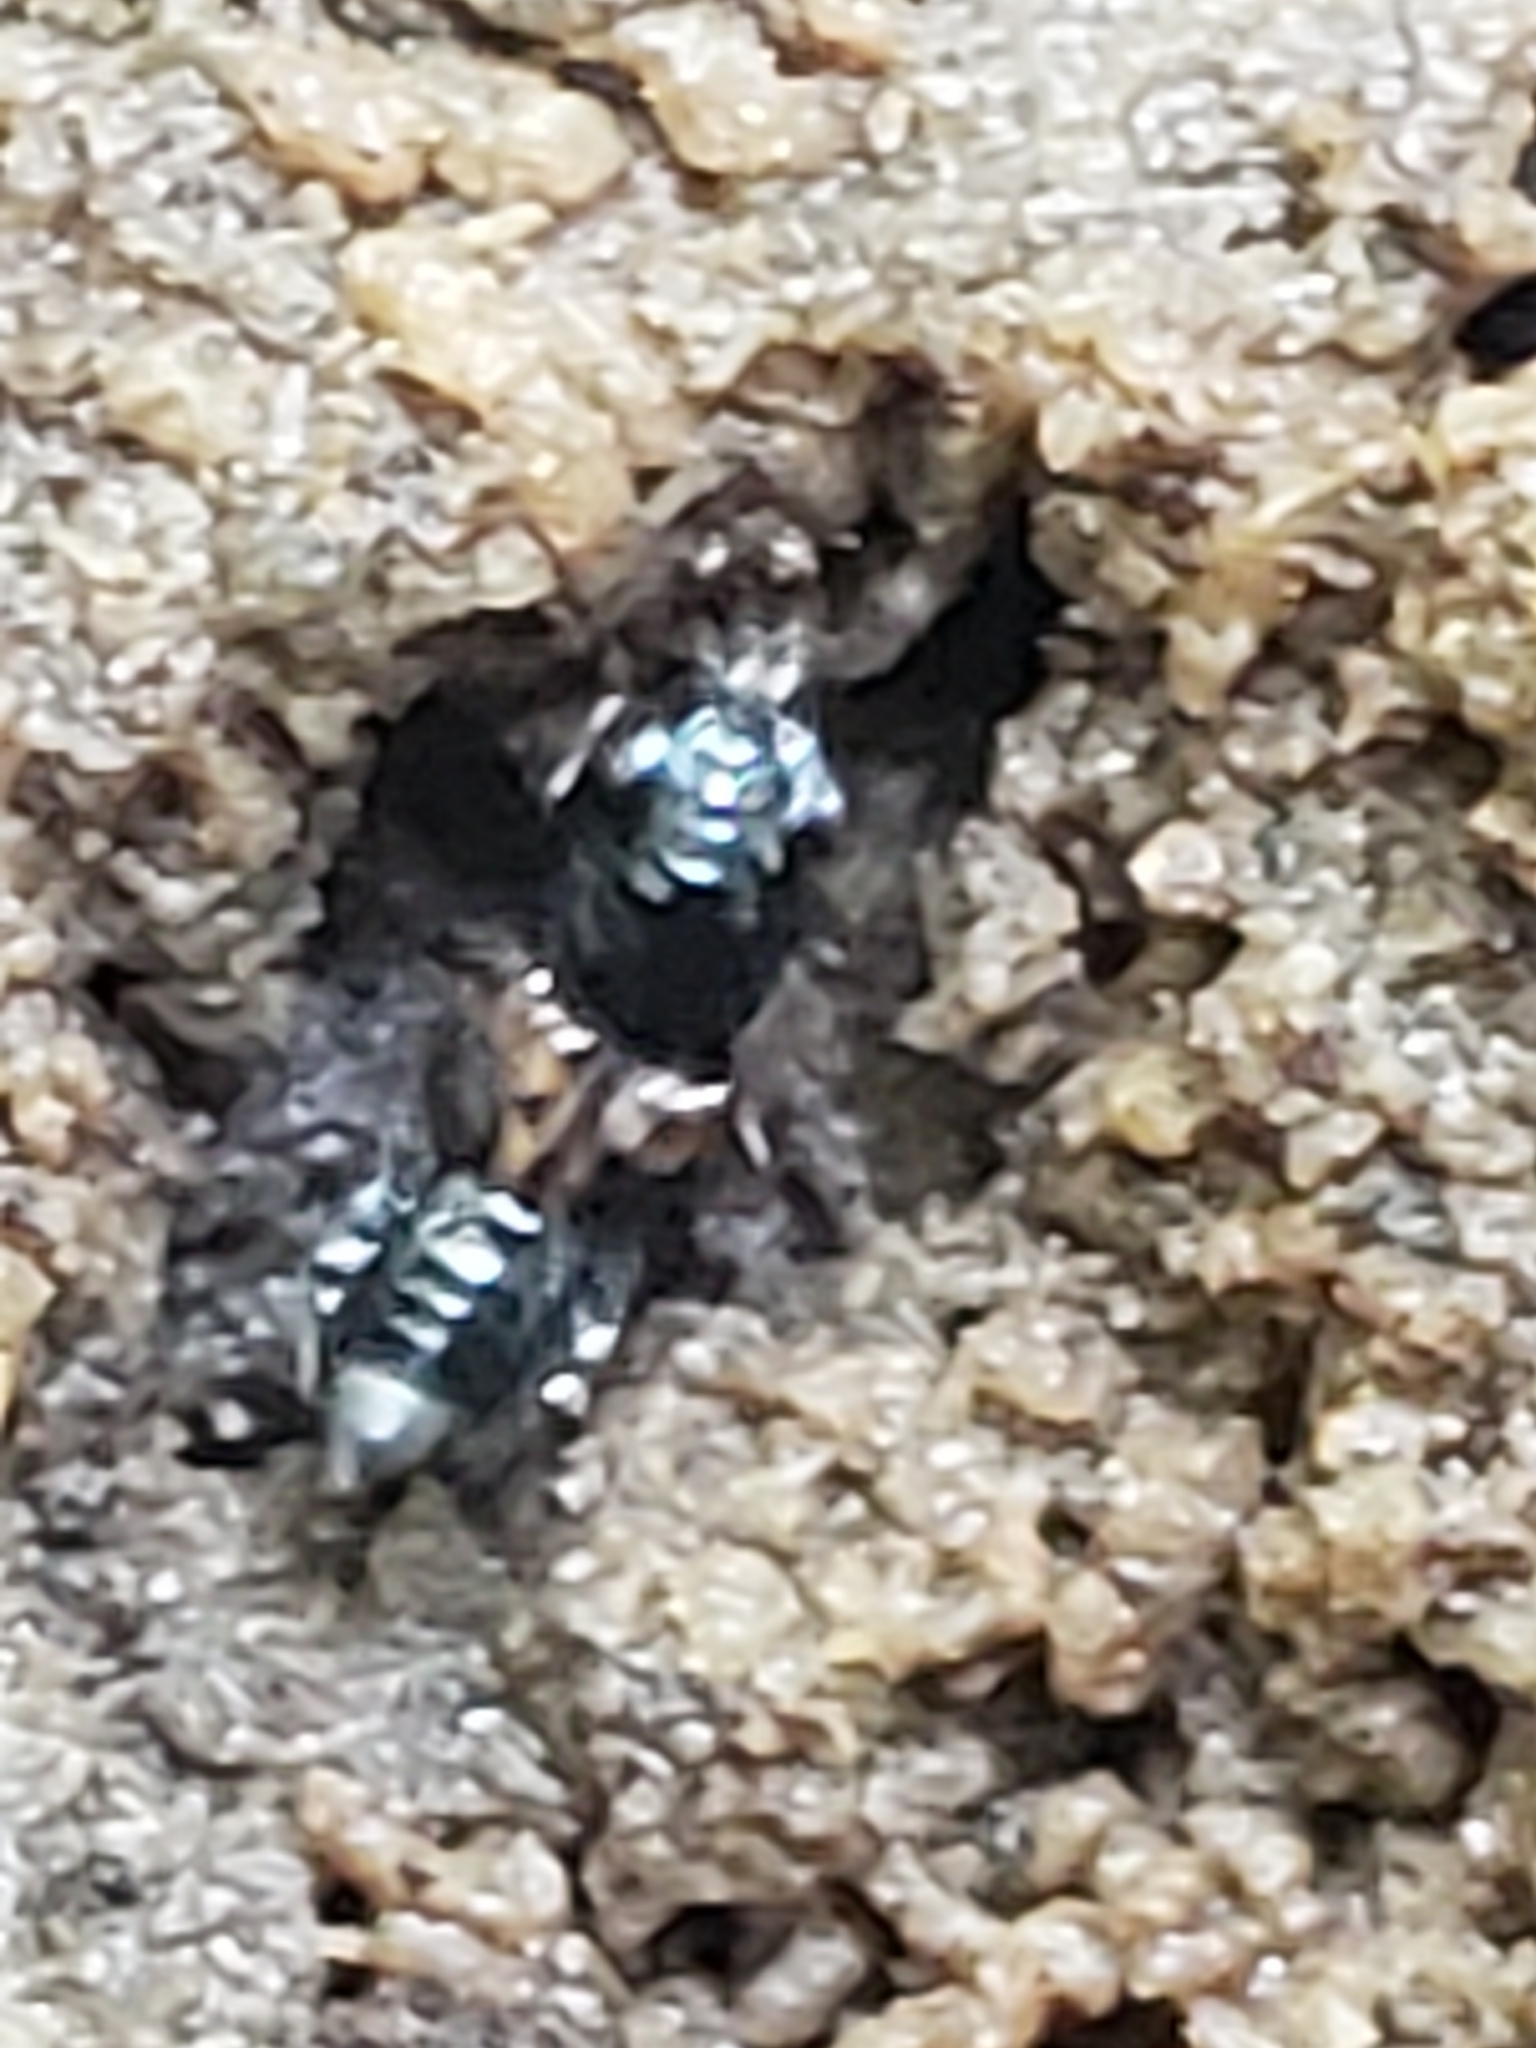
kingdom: Animalia
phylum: Arthropoda
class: Insecta
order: Coleoptera
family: Staphylinidae
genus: Megalopinus
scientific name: Megalopinus caelatus
